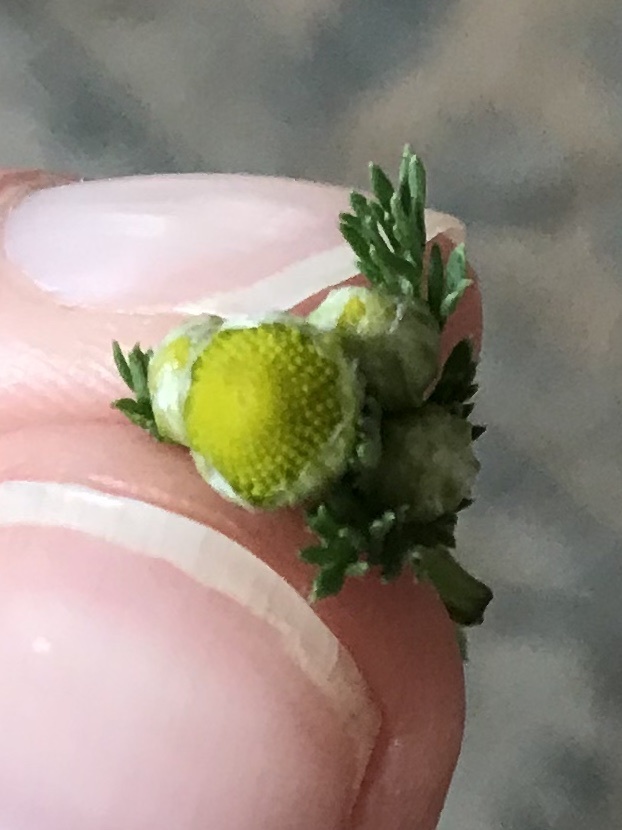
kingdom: Plantae
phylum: Tracheophyta
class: Magnoliopsida
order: Asterales
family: Asteraceae
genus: Matricaria
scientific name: Matricaria discoidea
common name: Disc mayweed
